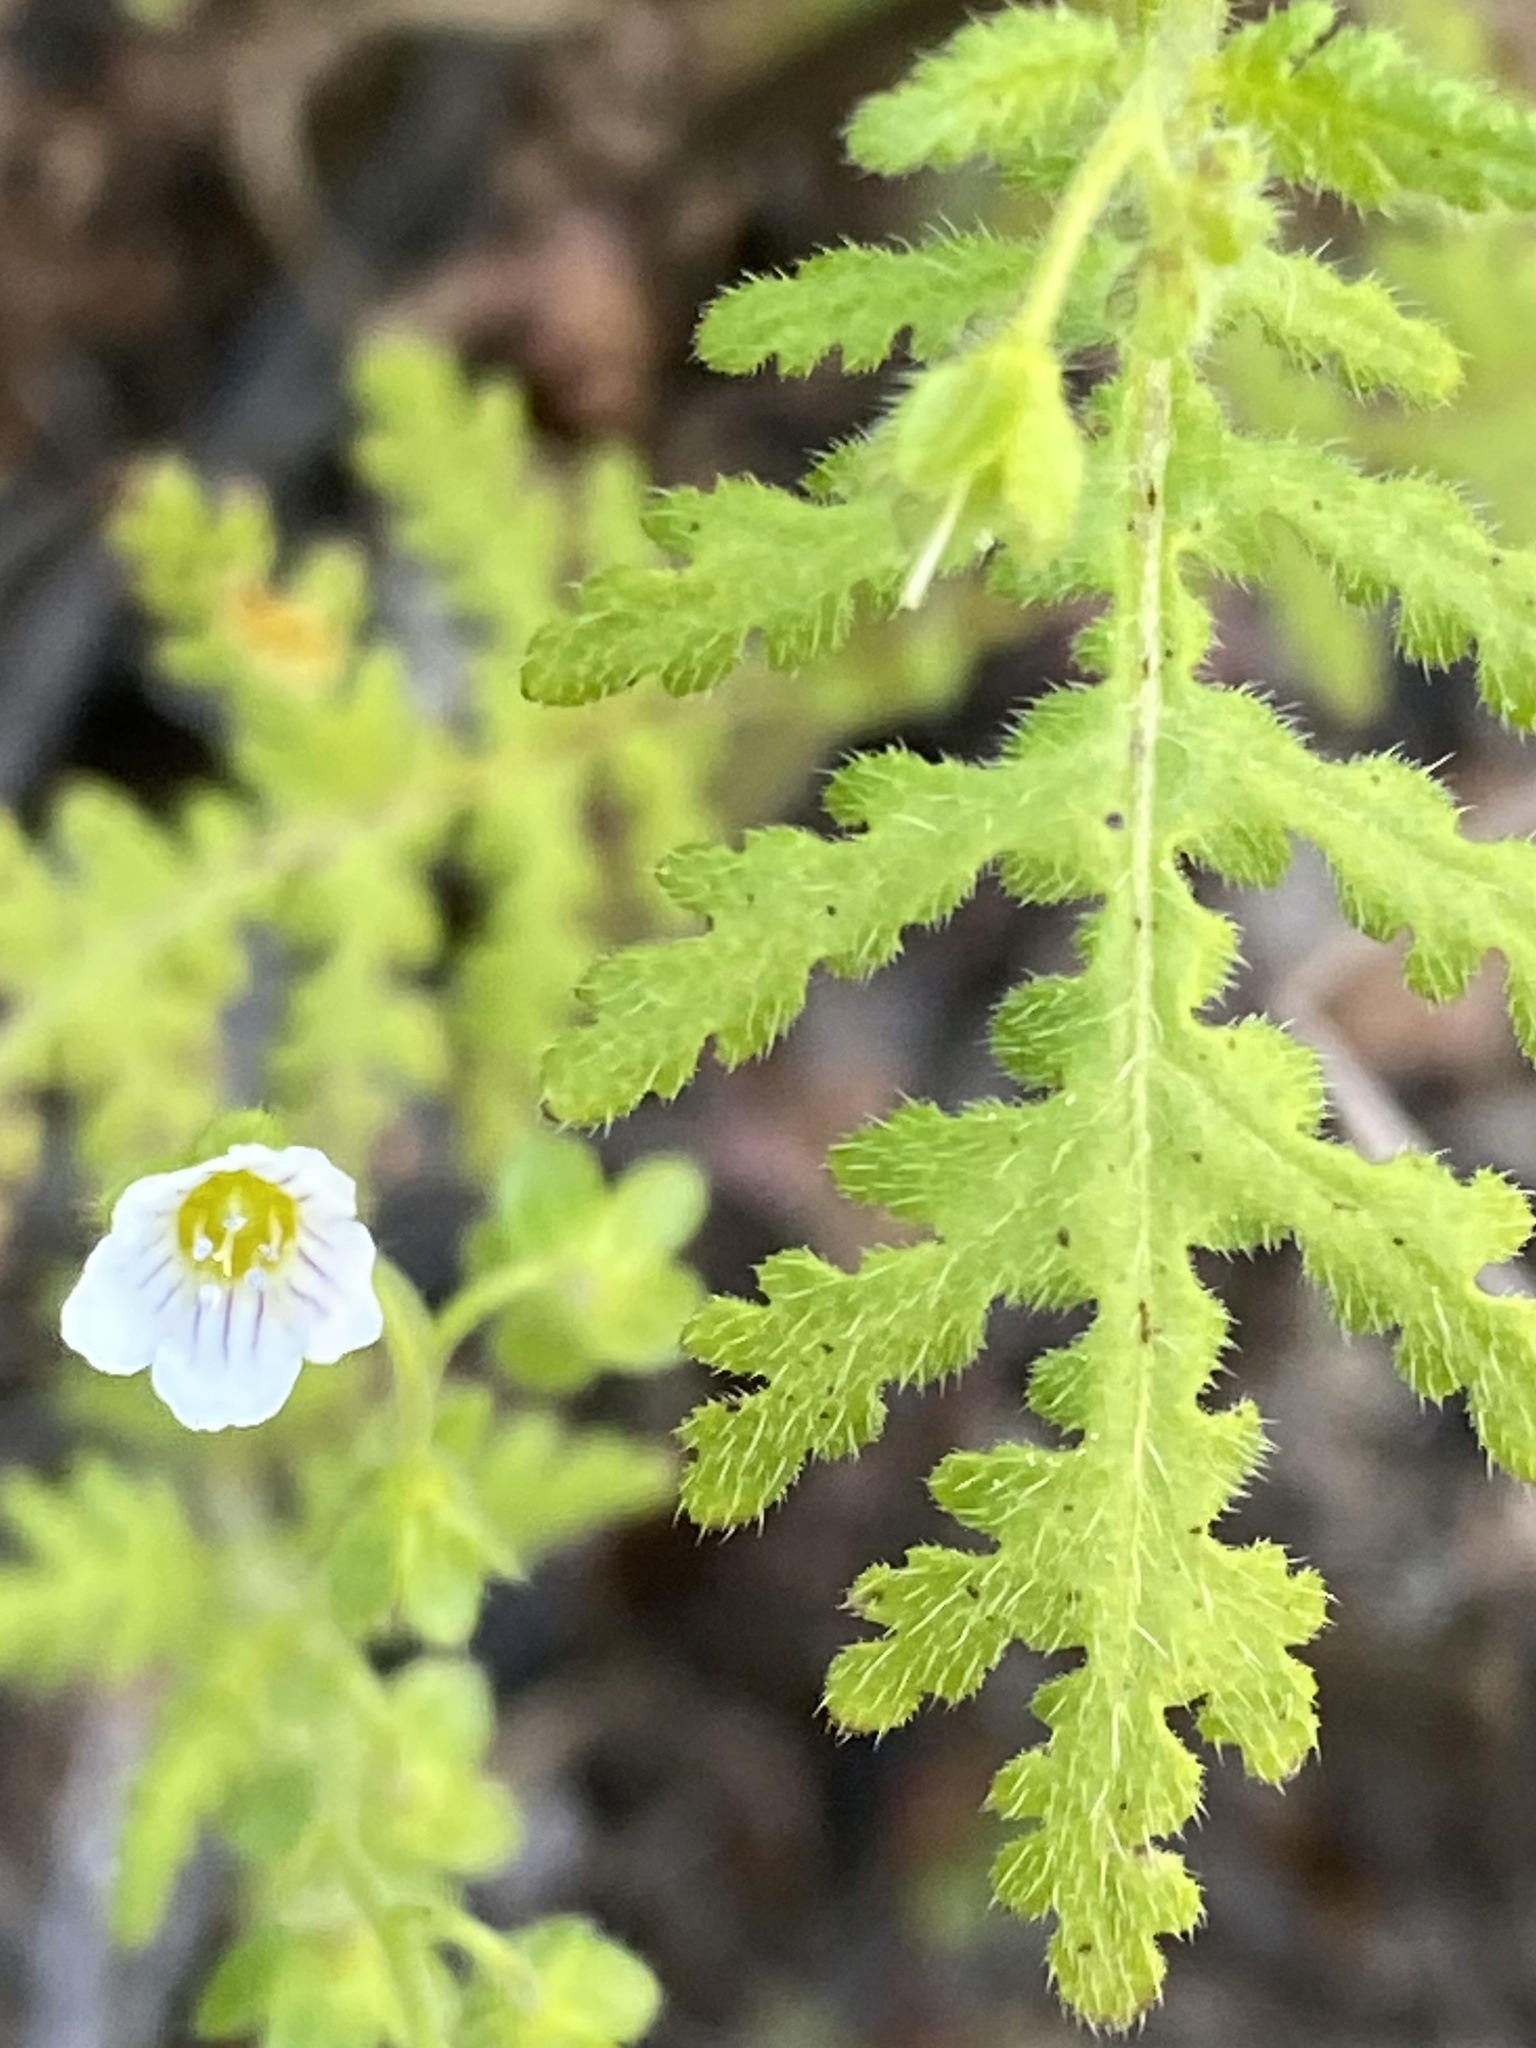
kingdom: Plantae
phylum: Tracheophyta
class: Magnoliopsida
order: Boraginales
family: Hydrophyllaceae
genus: Eucrypta
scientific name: Eucrypta chrysanthemifolia
